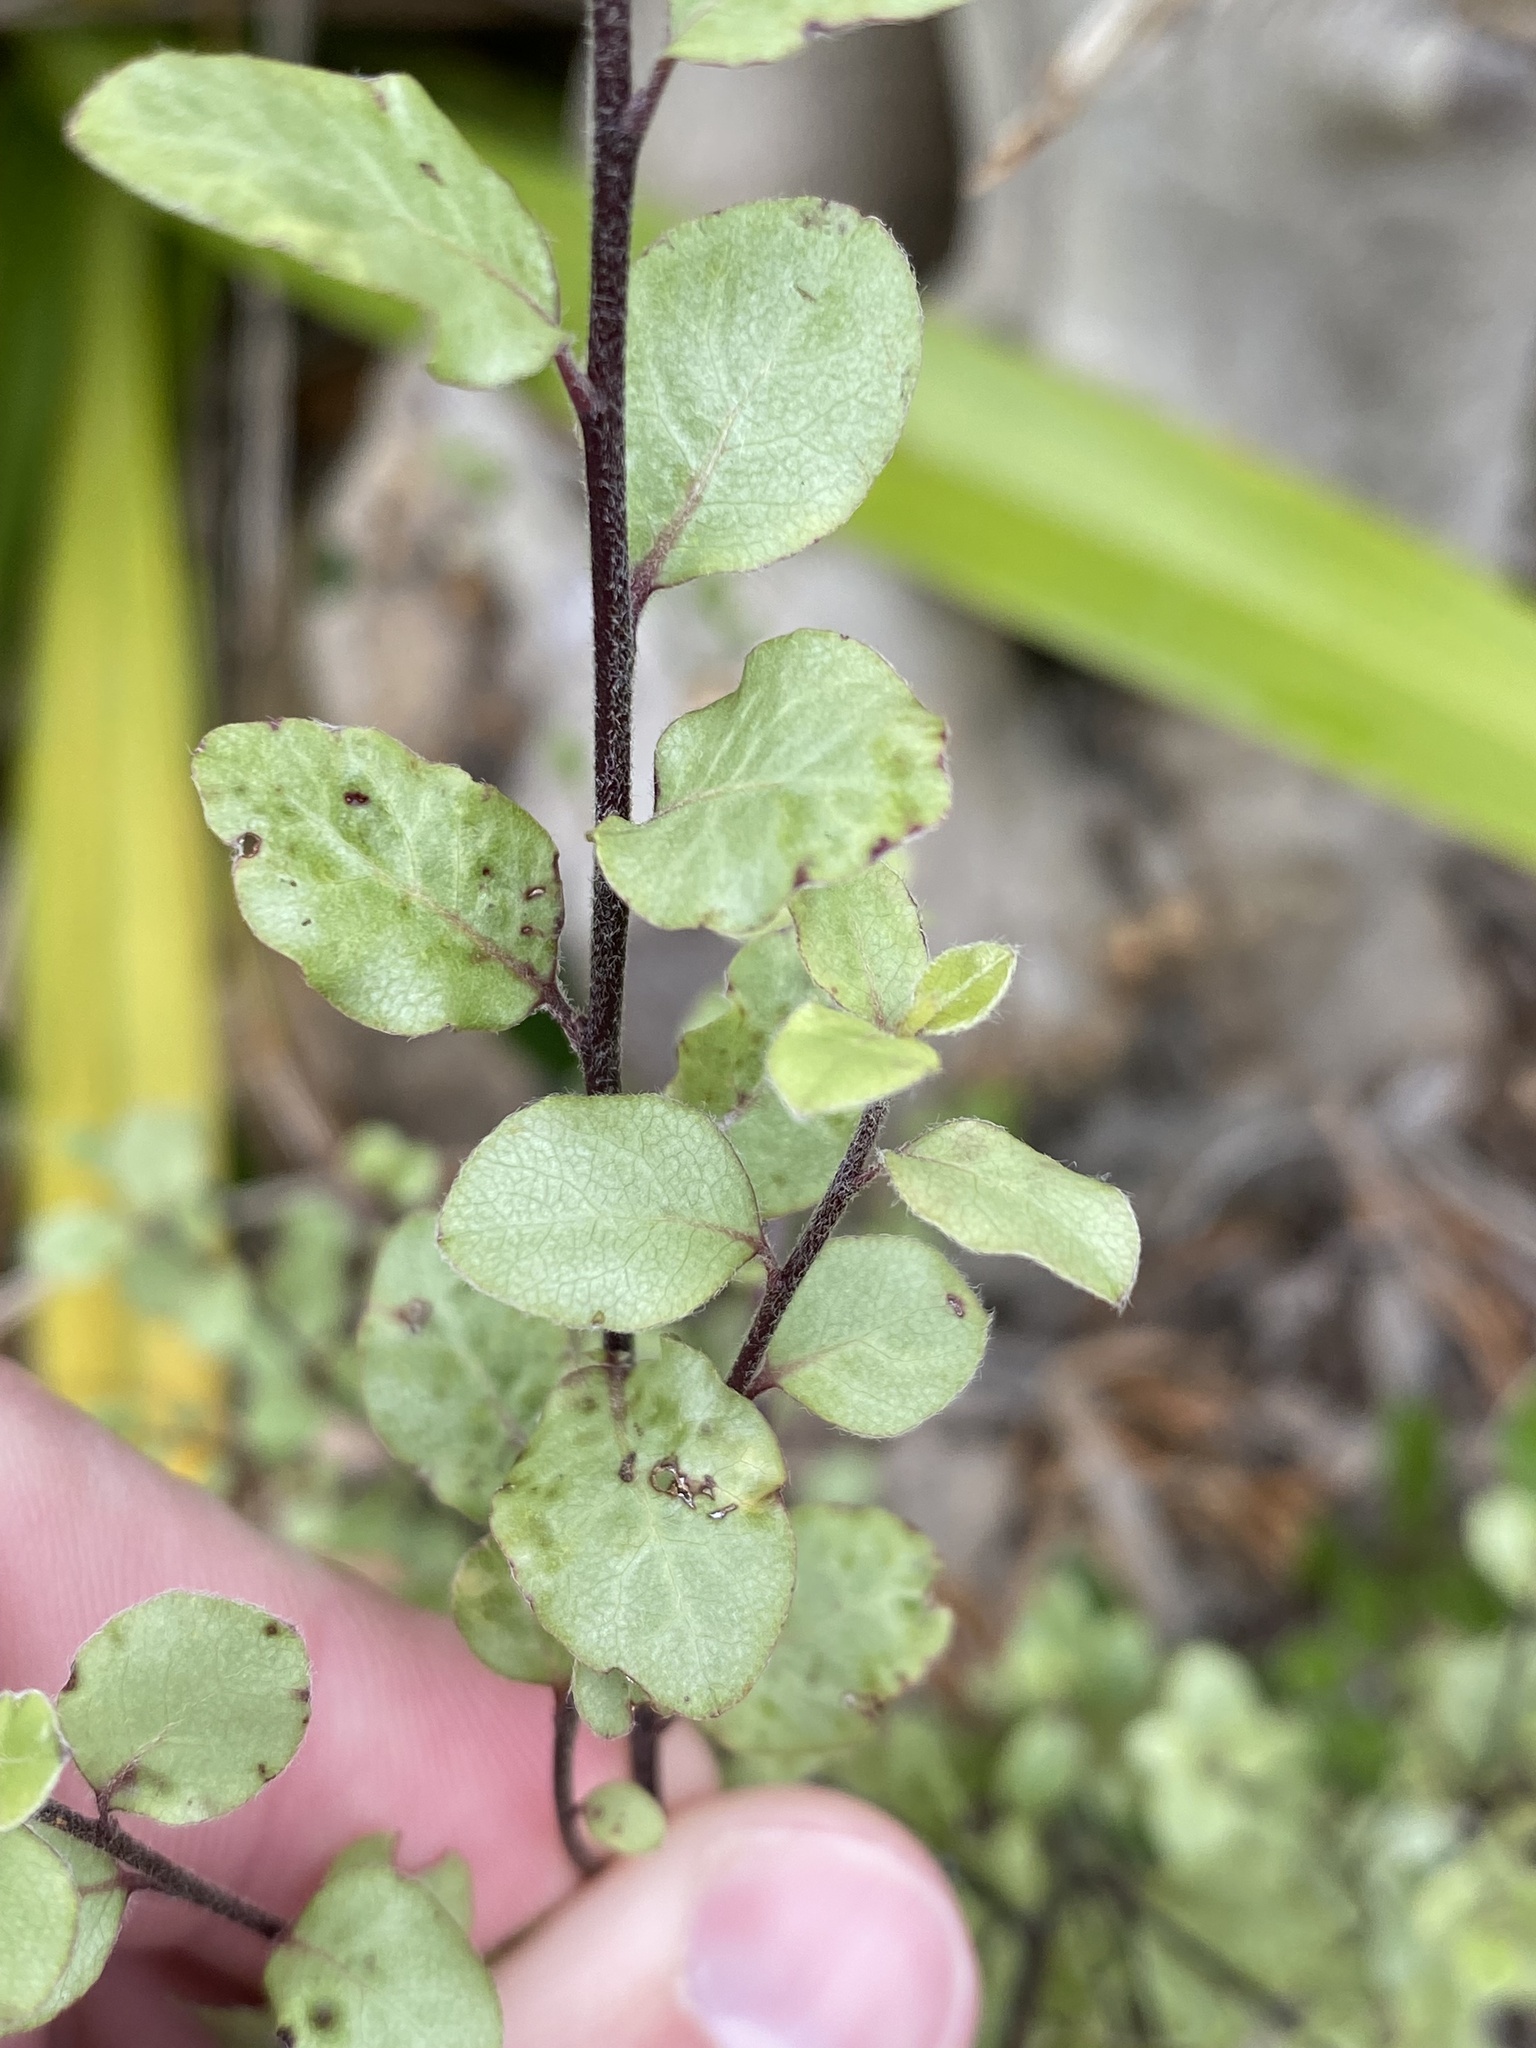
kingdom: Plantae
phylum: Tracheophyta
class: Magnoliopsida
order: Apiales
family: Pittosporaceae
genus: Pittosporum
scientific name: Pittosporum tenuifolium
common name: Kohuhu
